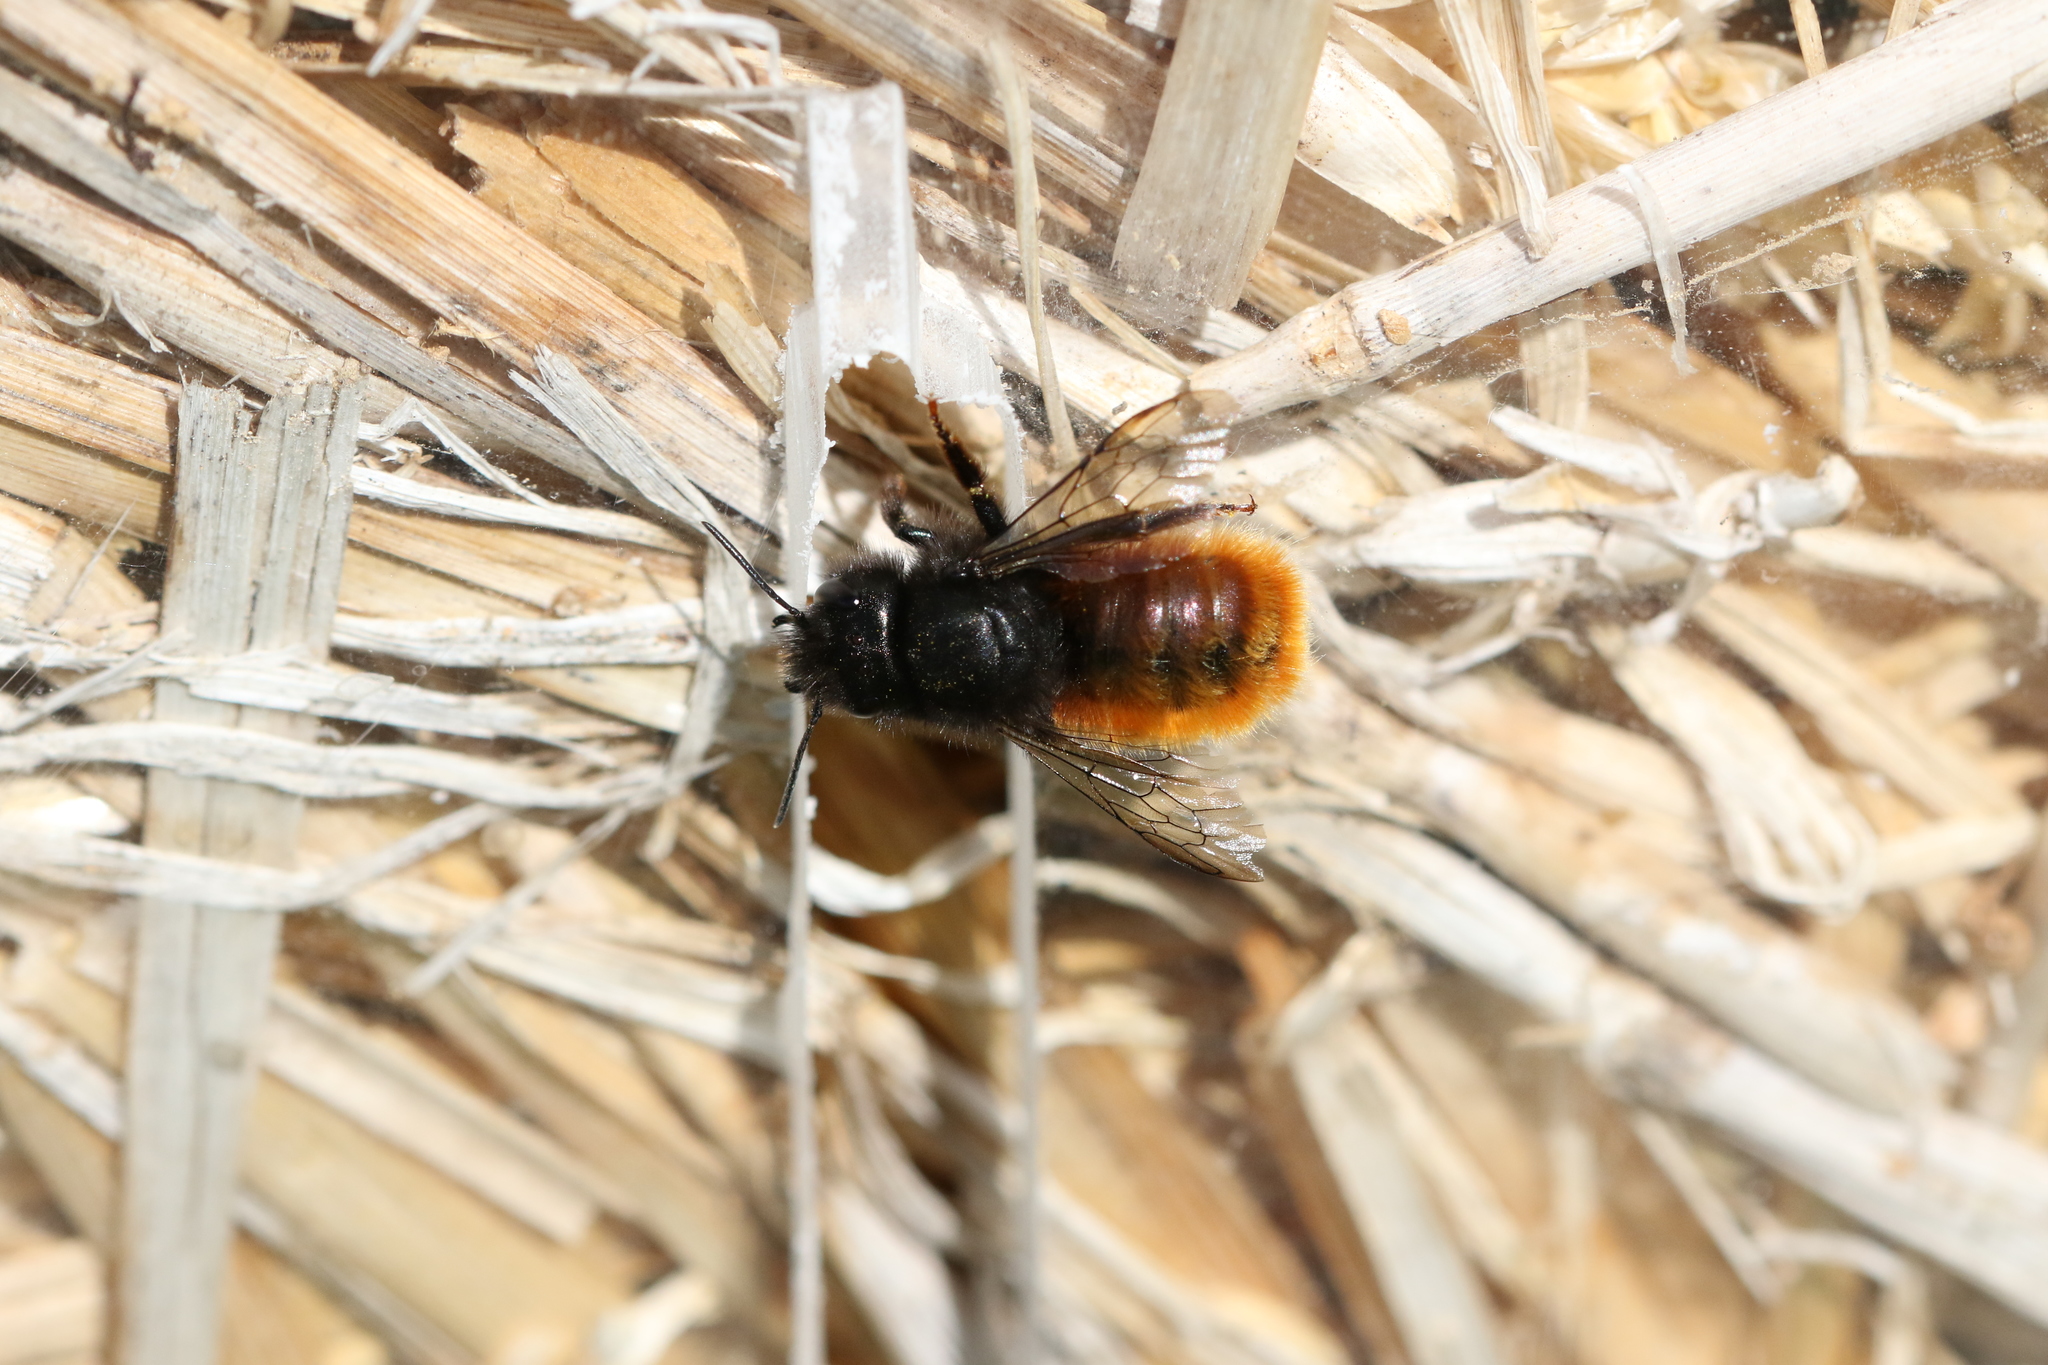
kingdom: Animalia
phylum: Arthropoda
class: Insecta
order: Hymenoptera
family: Megachilidae
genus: Osmia
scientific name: Osmia cornuta
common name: Mason bee
